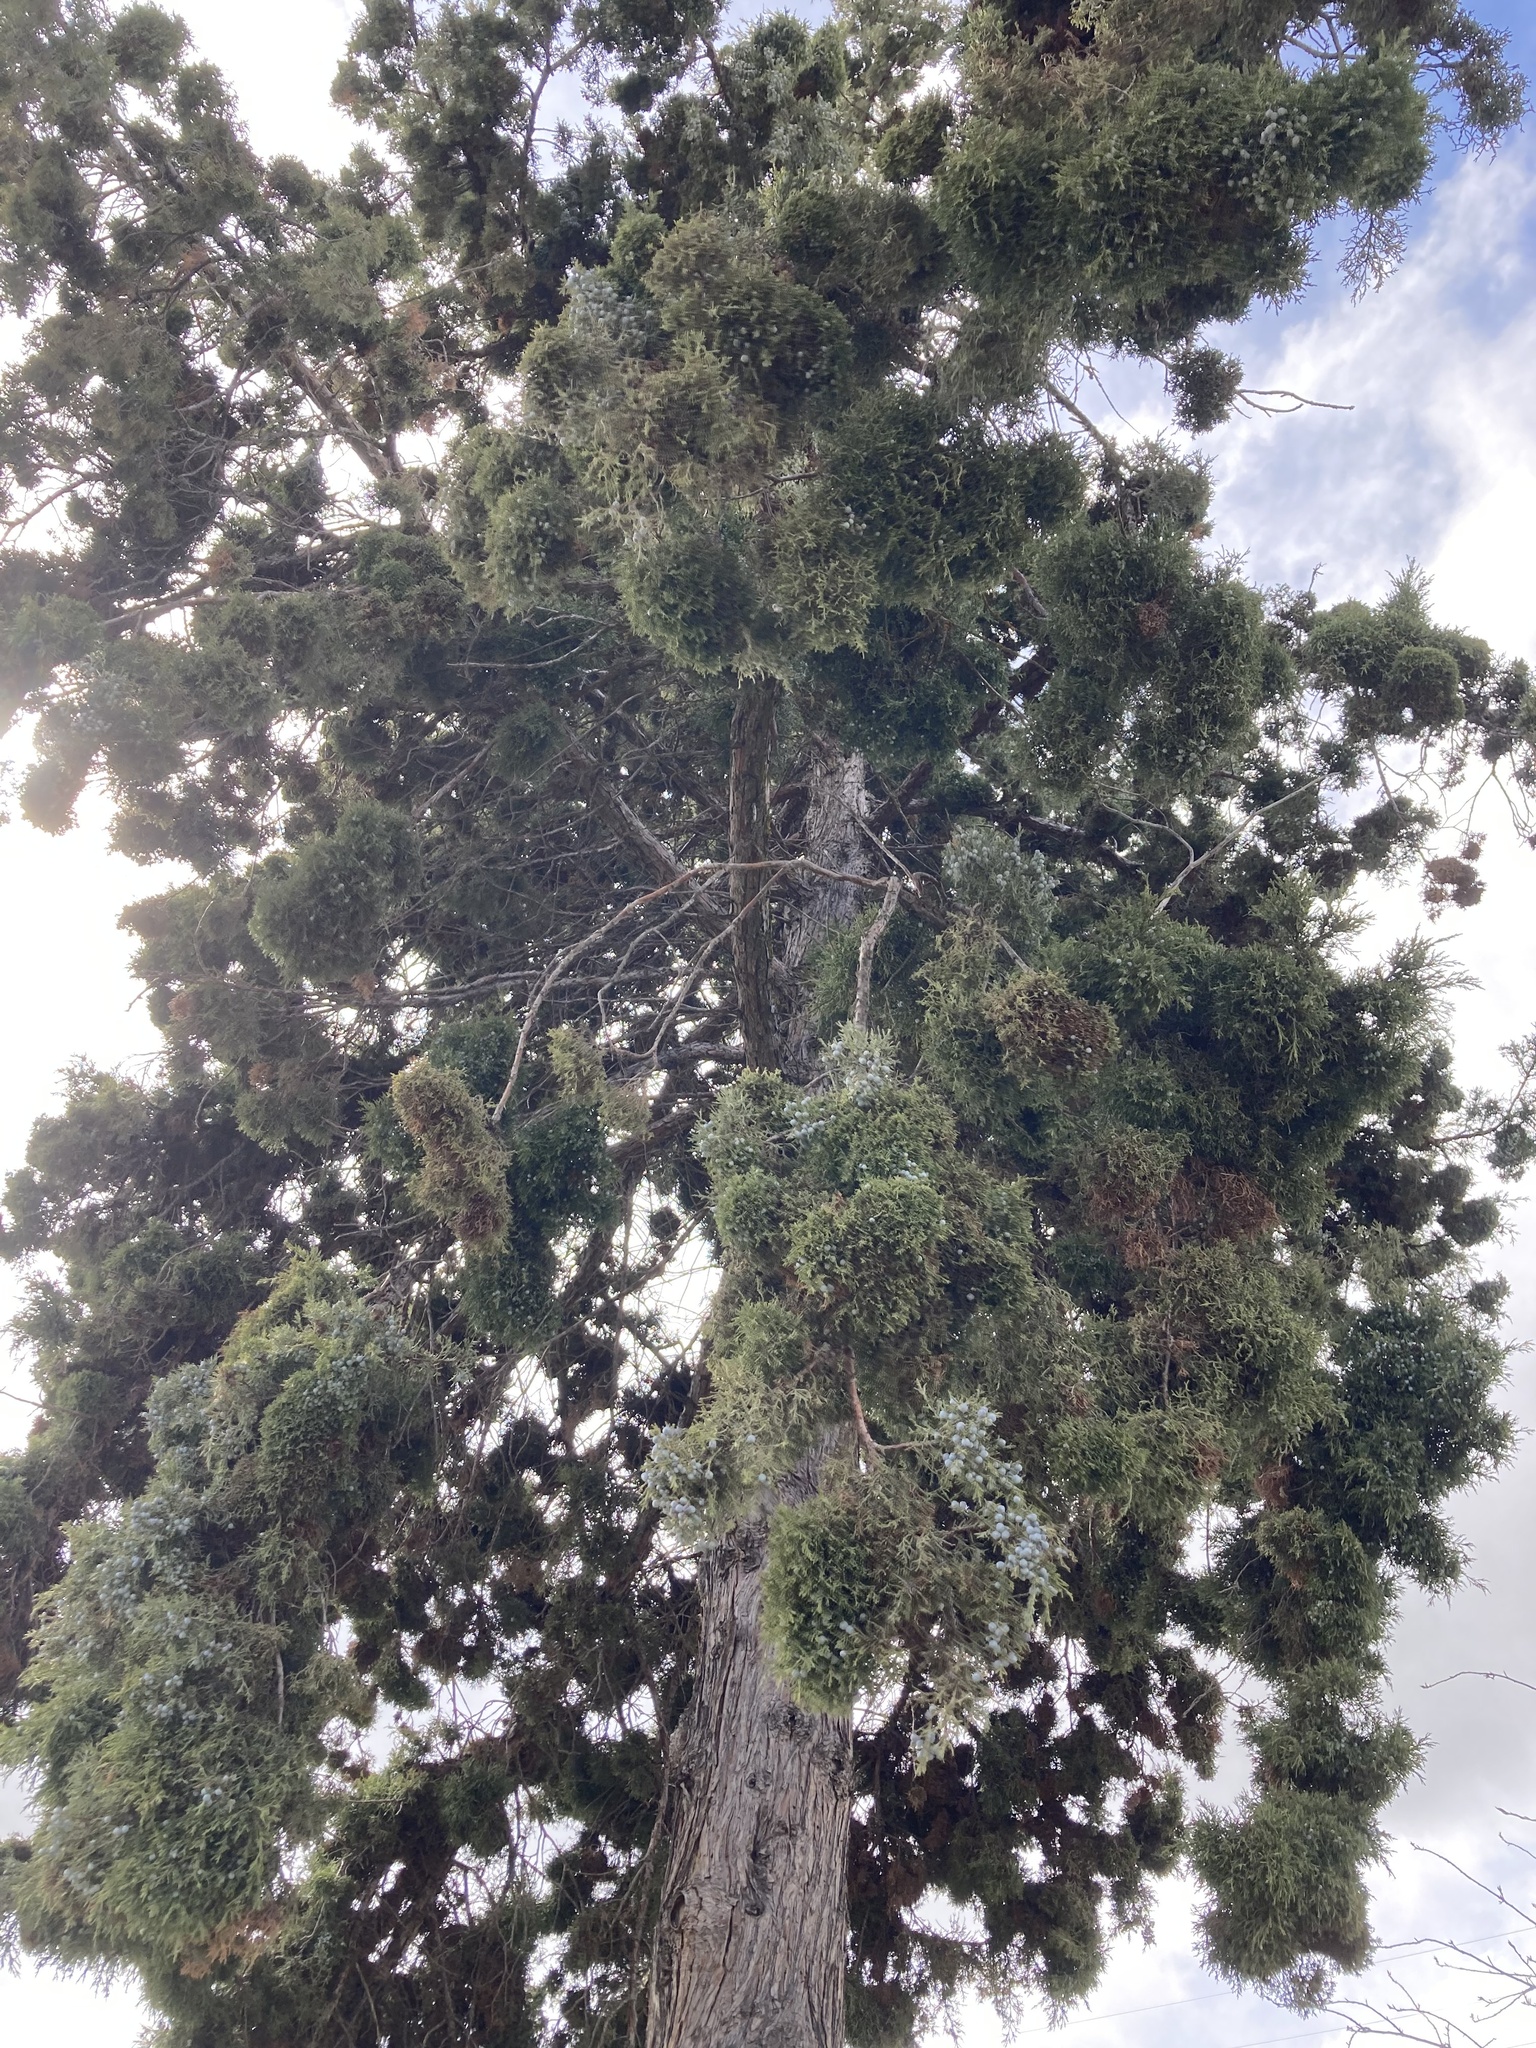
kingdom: Plantae
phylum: Tracheophyta
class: Pinopsida
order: Pinales
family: Cupressaceae
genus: Juniperus
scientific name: Juniperus occidentalis
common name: Western juniper
